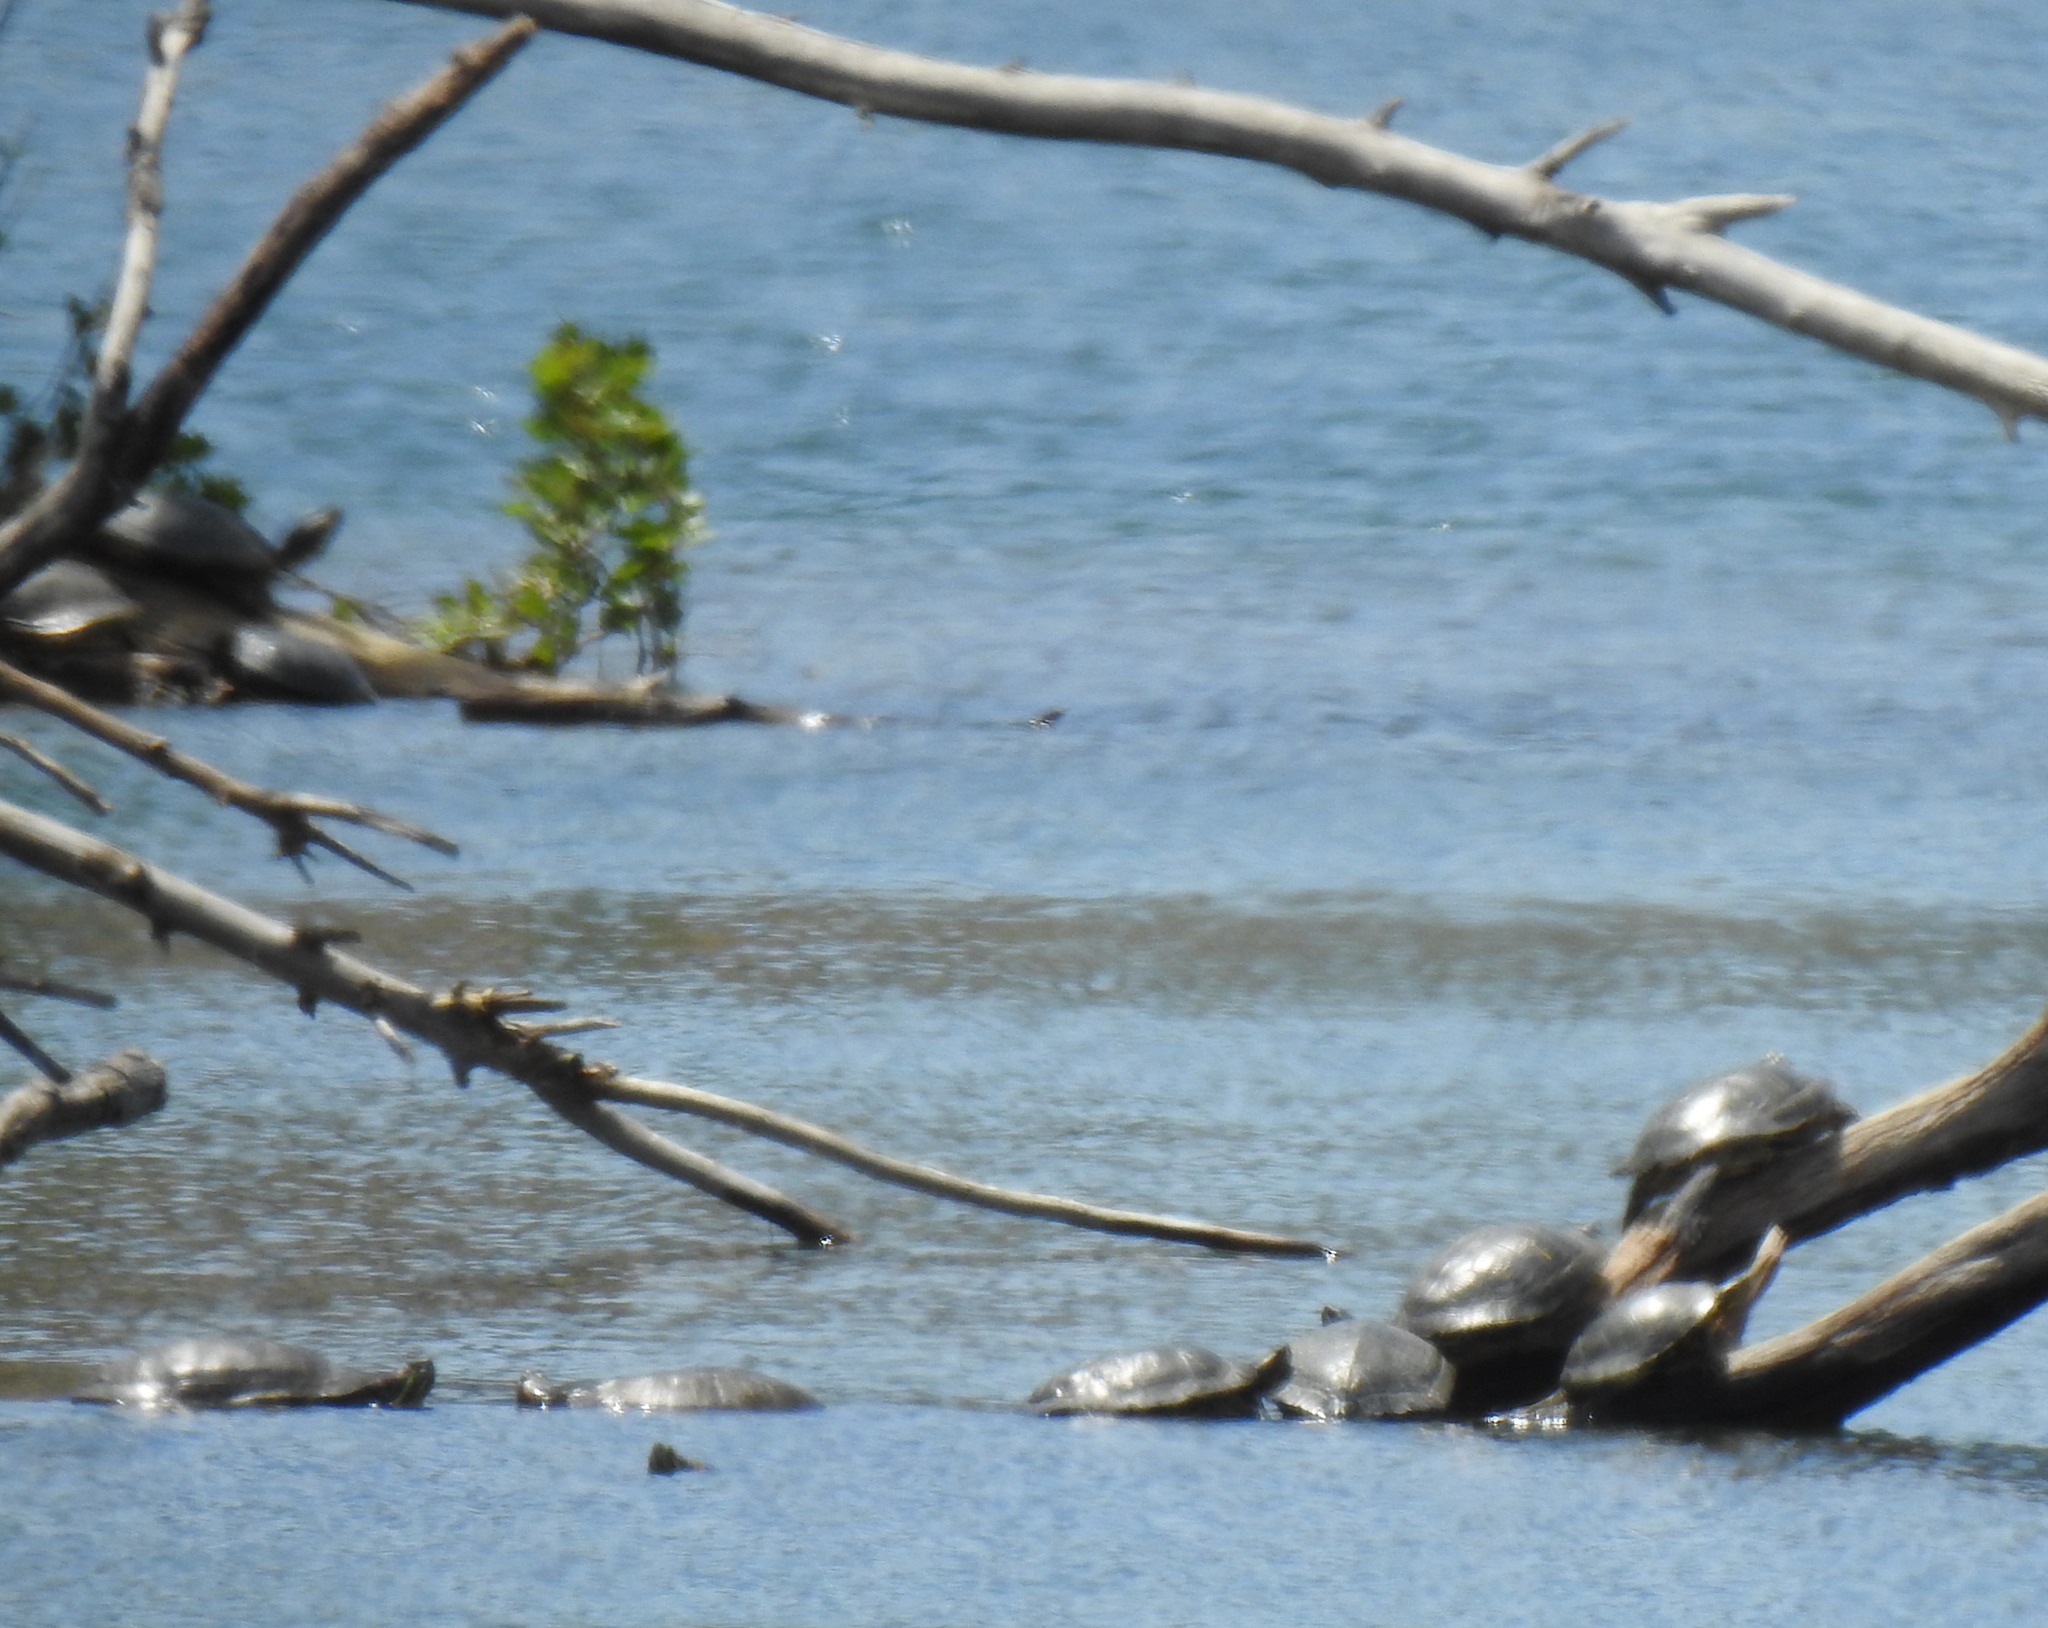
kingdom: Animalia
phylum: Chordata
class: Testudines
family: Emydidae
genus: Trachemys
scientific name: Trachemys scripta
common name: Slider
